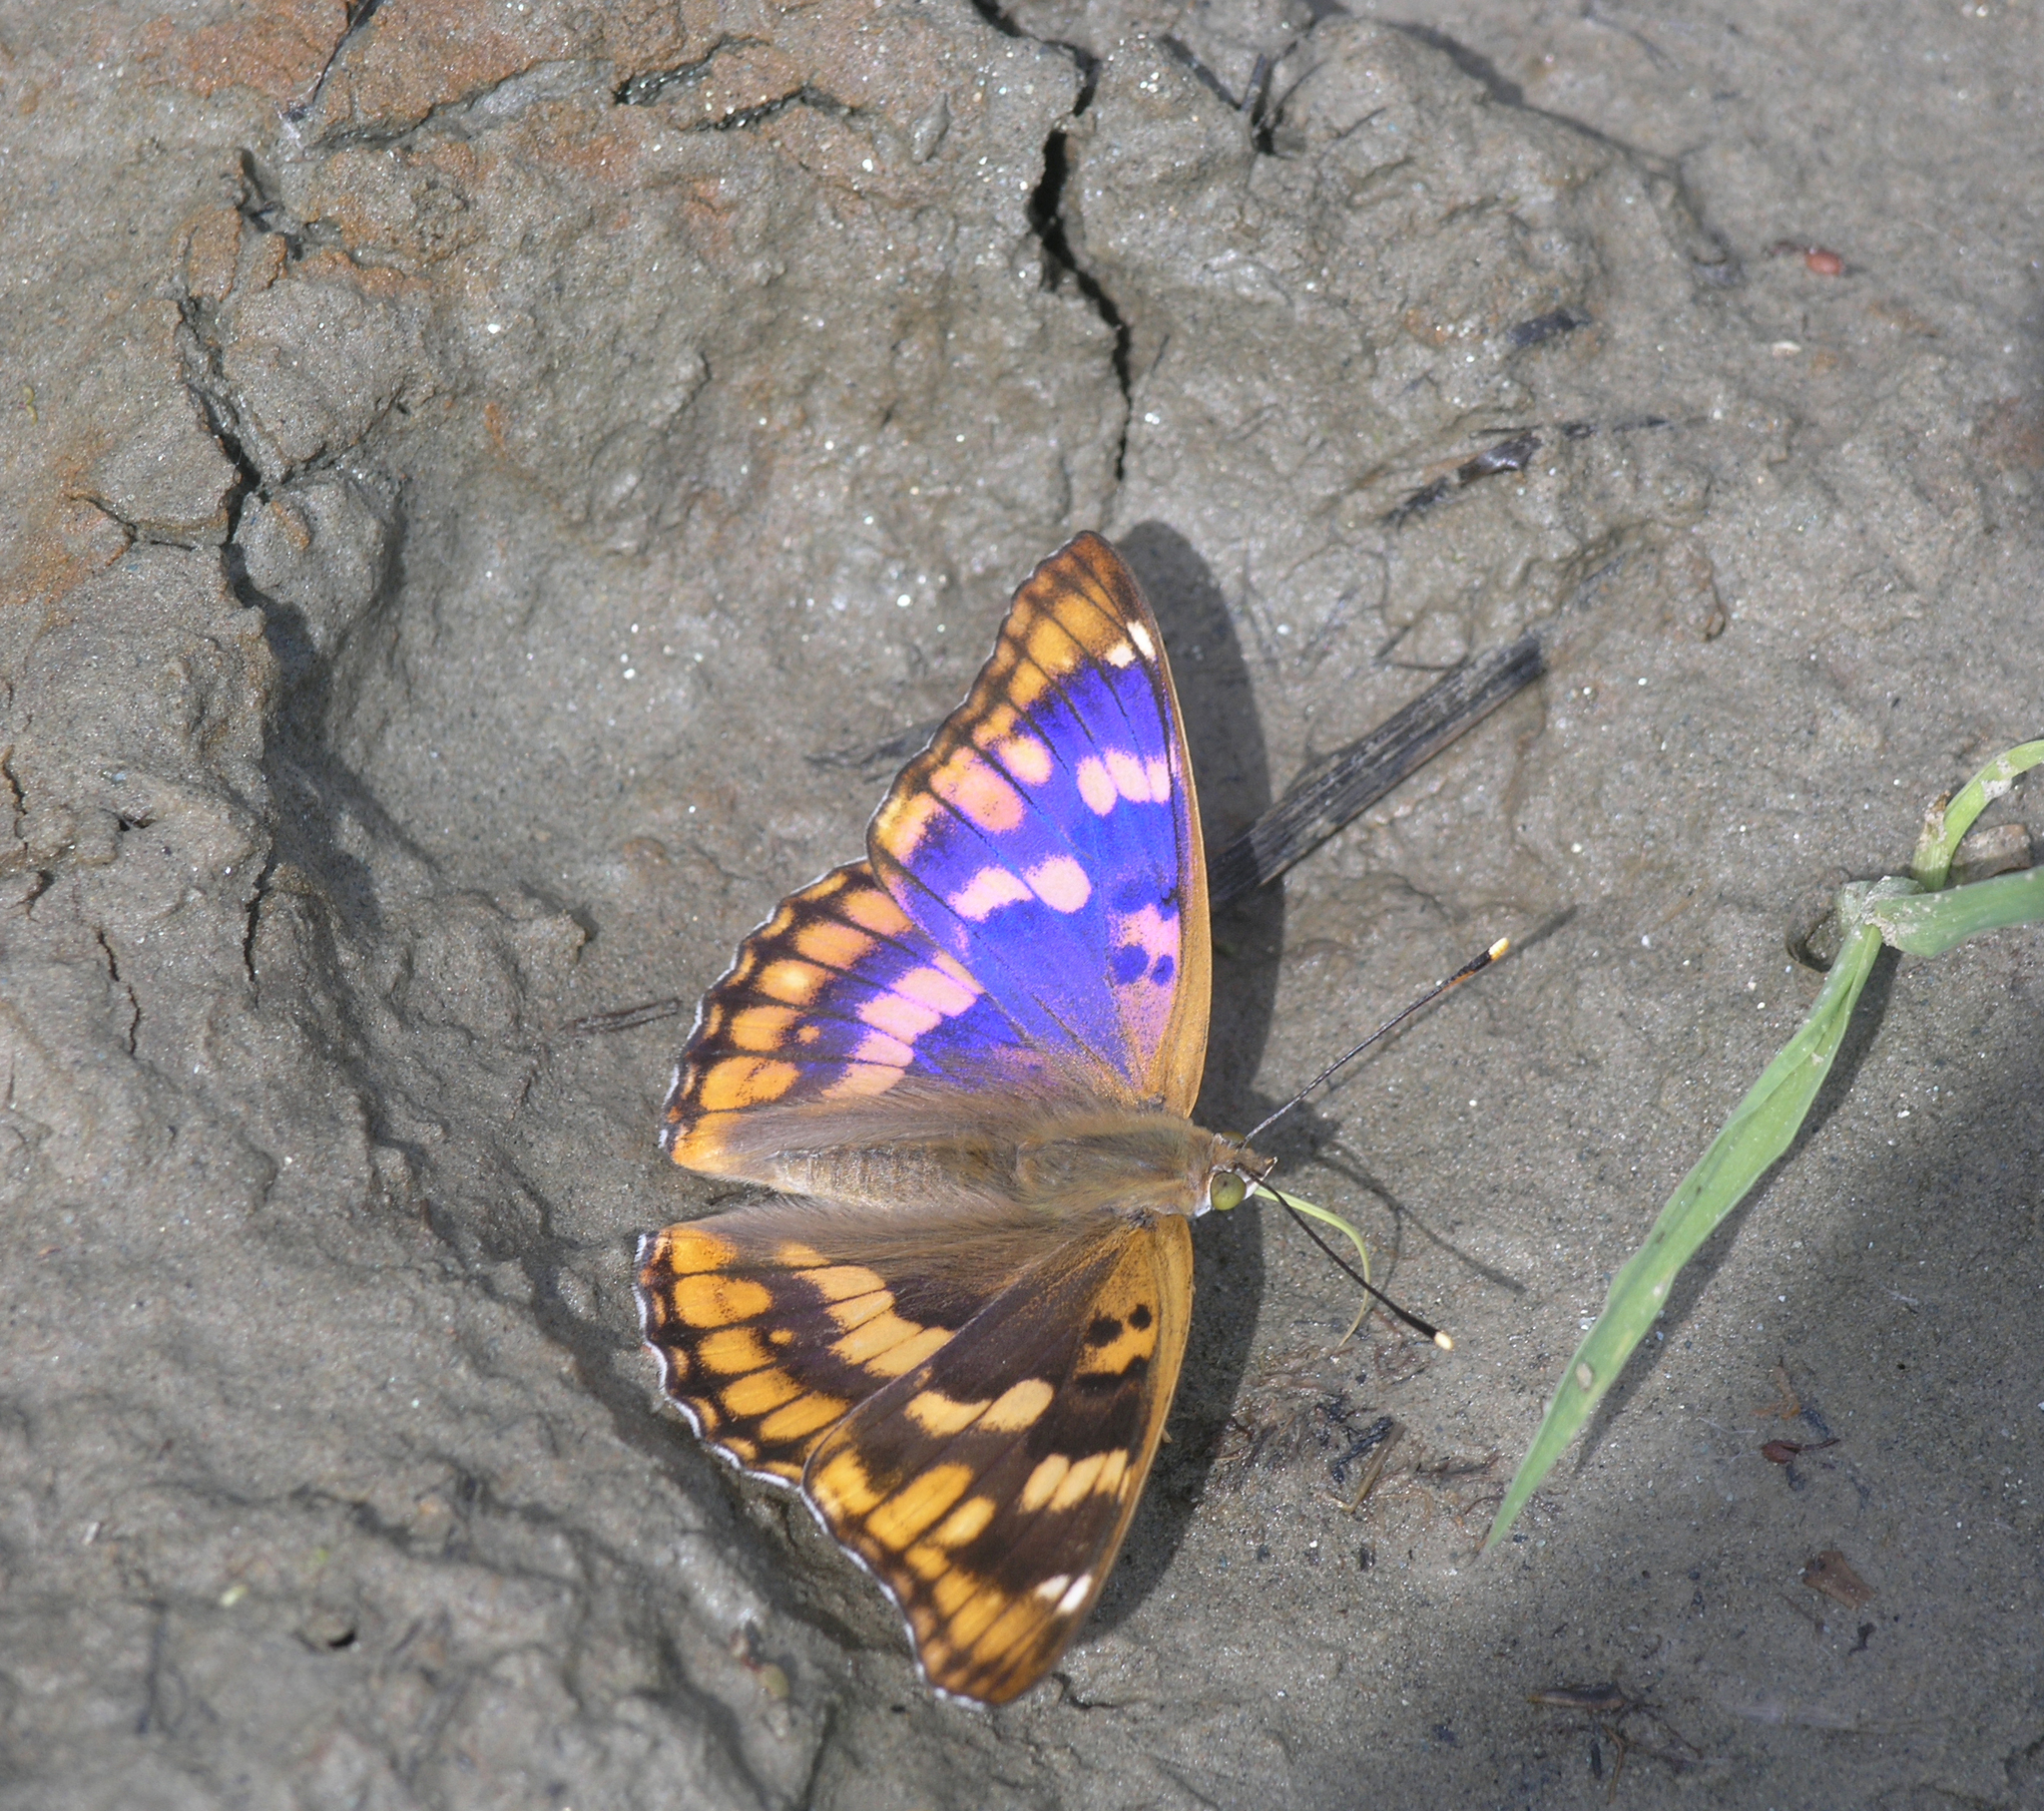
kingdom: Animalia
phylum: Arthropoda
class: Insecta
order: Lepidoptera
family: Nymphalidae
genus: Apatura
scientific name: Apatura ilia
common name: Lesser purple emperor
